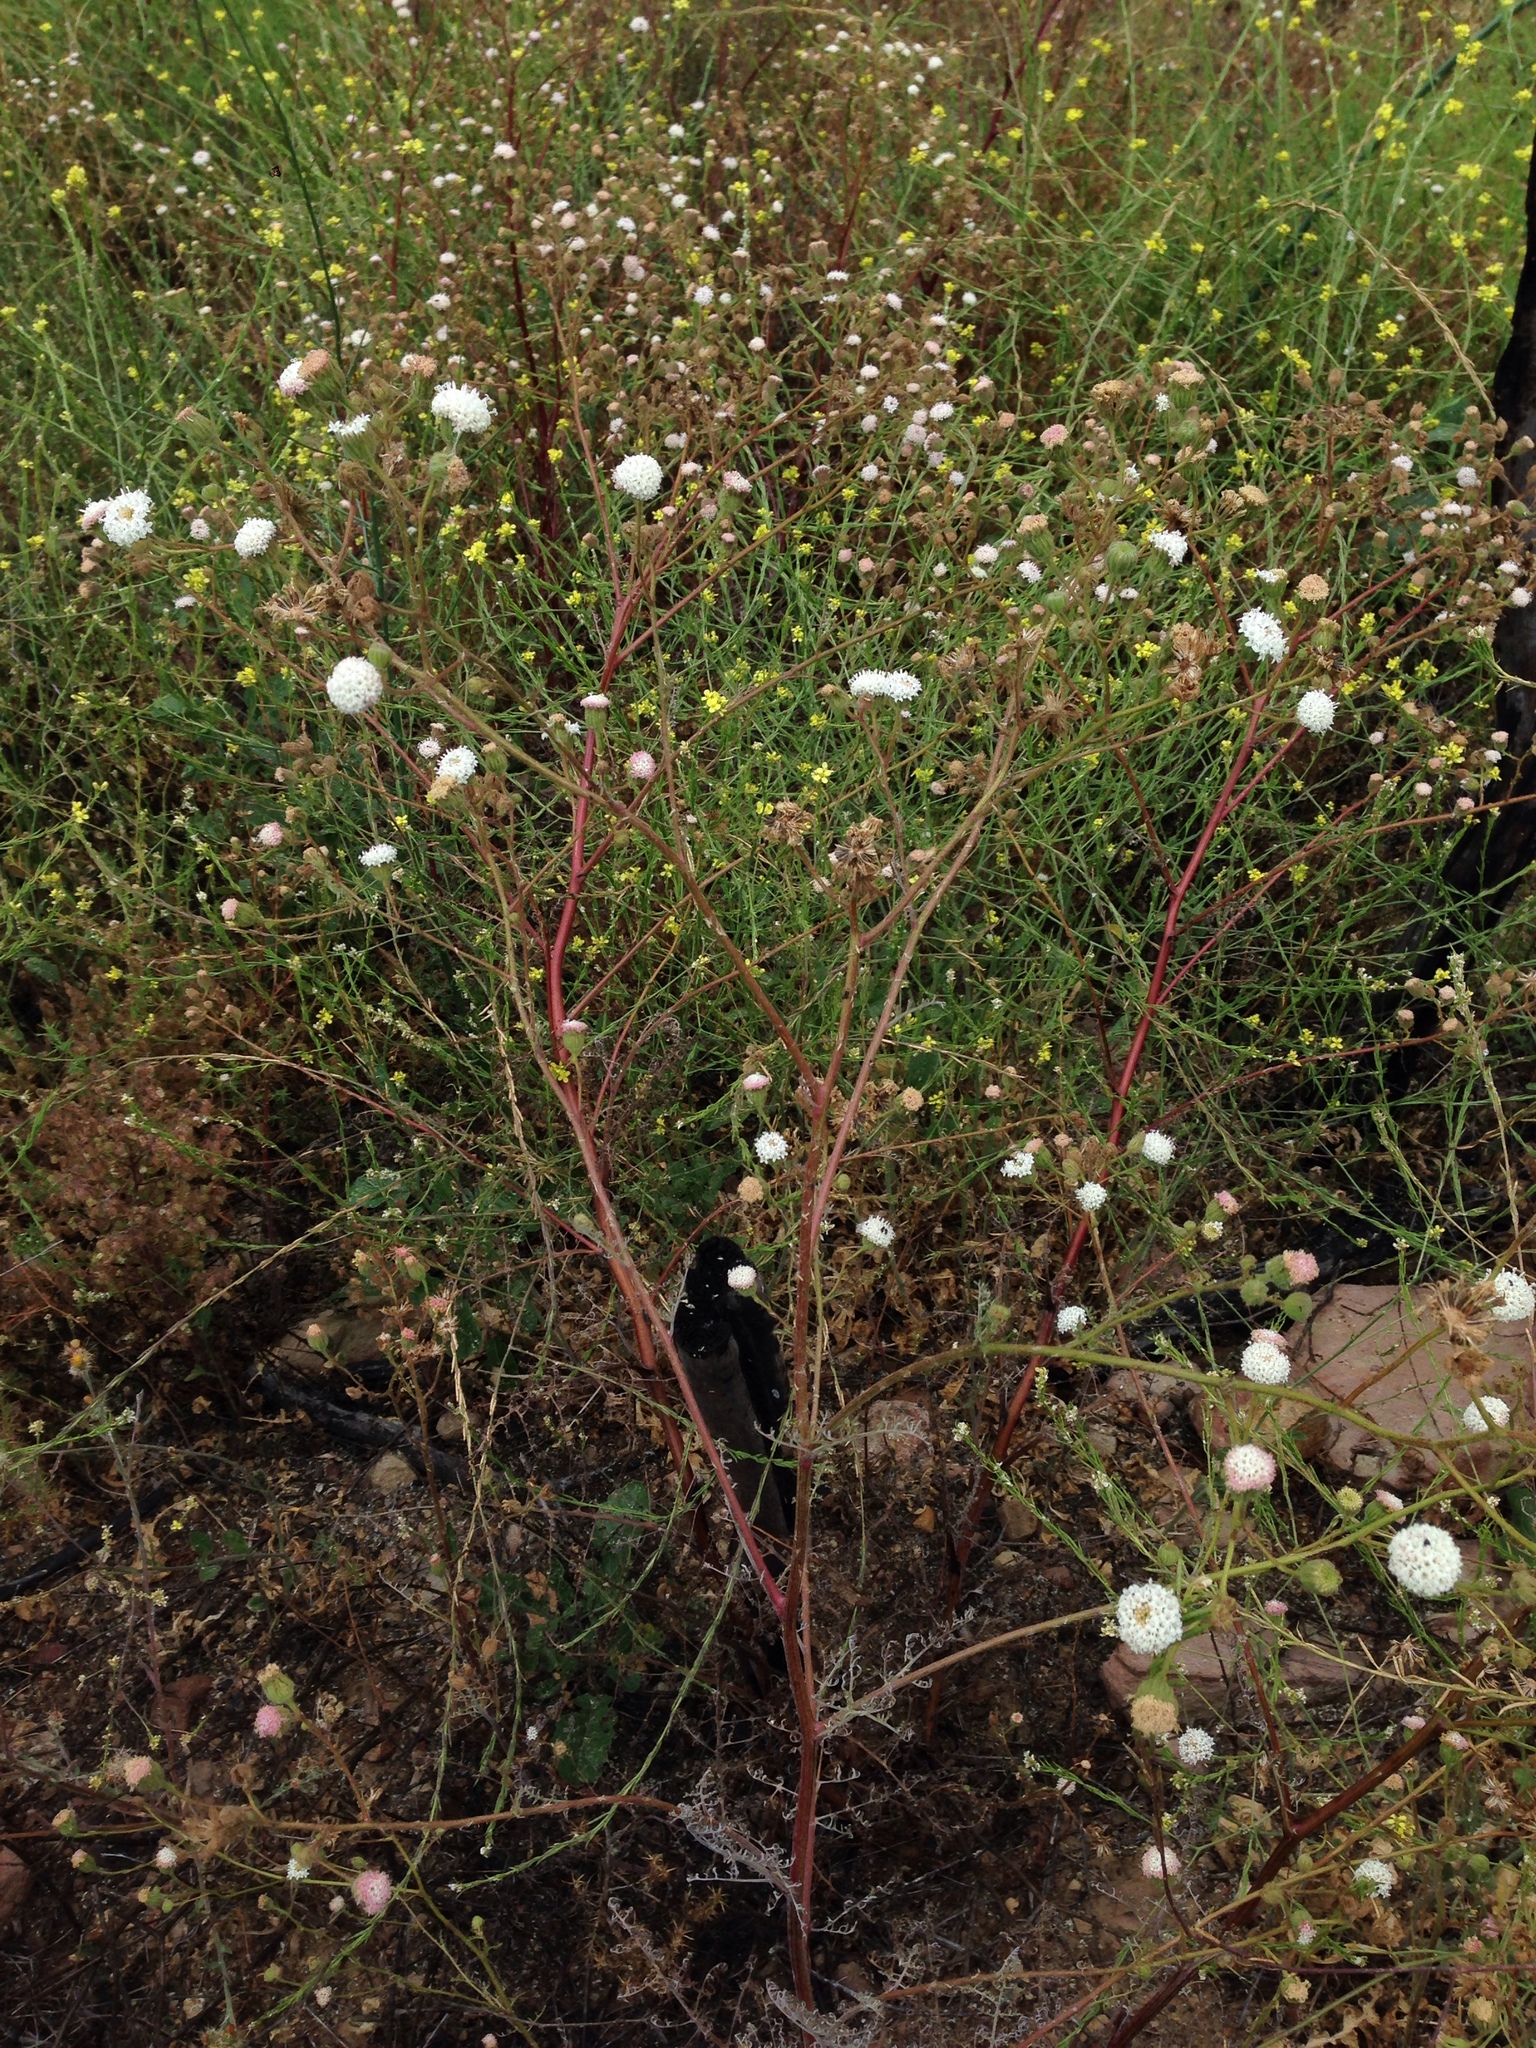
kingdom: Plantae
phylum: Tracheophyta
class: Magnoliopsida
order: Asterales
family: Asteraceae
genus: Chaenactis
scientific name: Chaenactis artemisiifolia
